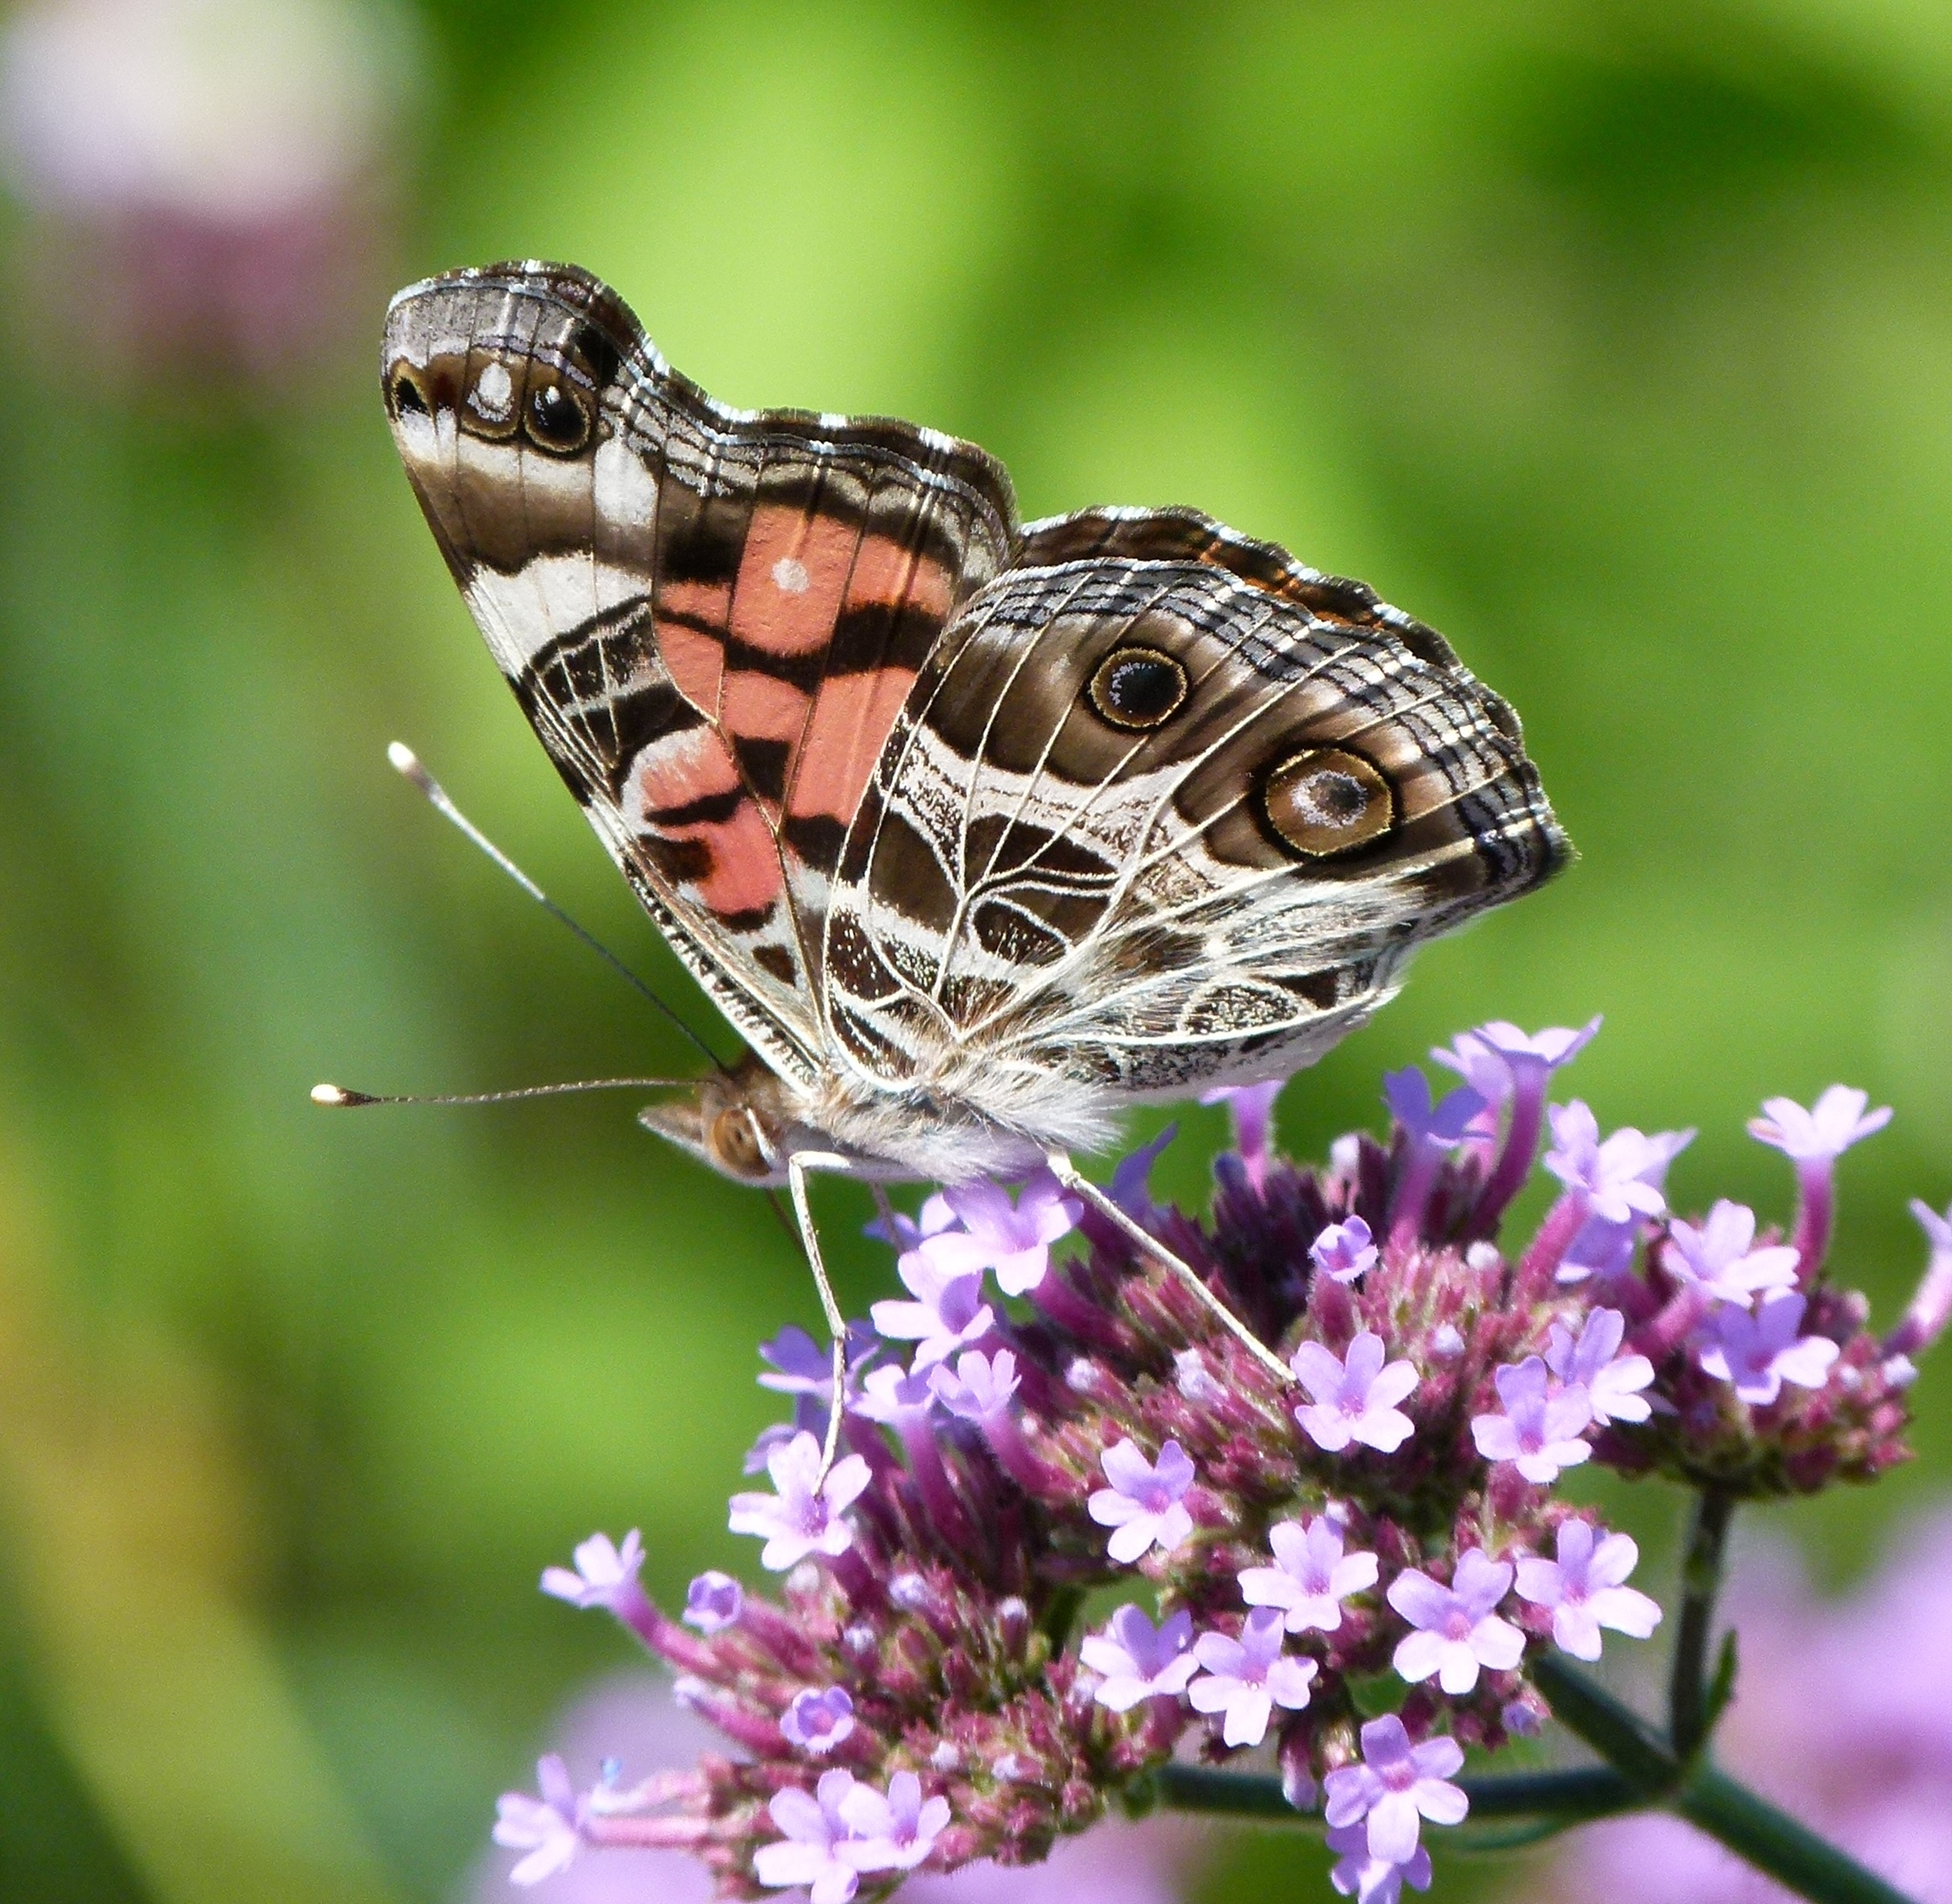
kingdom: Animalia
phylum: Arthropoda
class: Insecta
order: Lepidoptera
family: Nymphalidae
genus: Vanessa
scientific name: Vanessa virginiensis
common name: American lady
